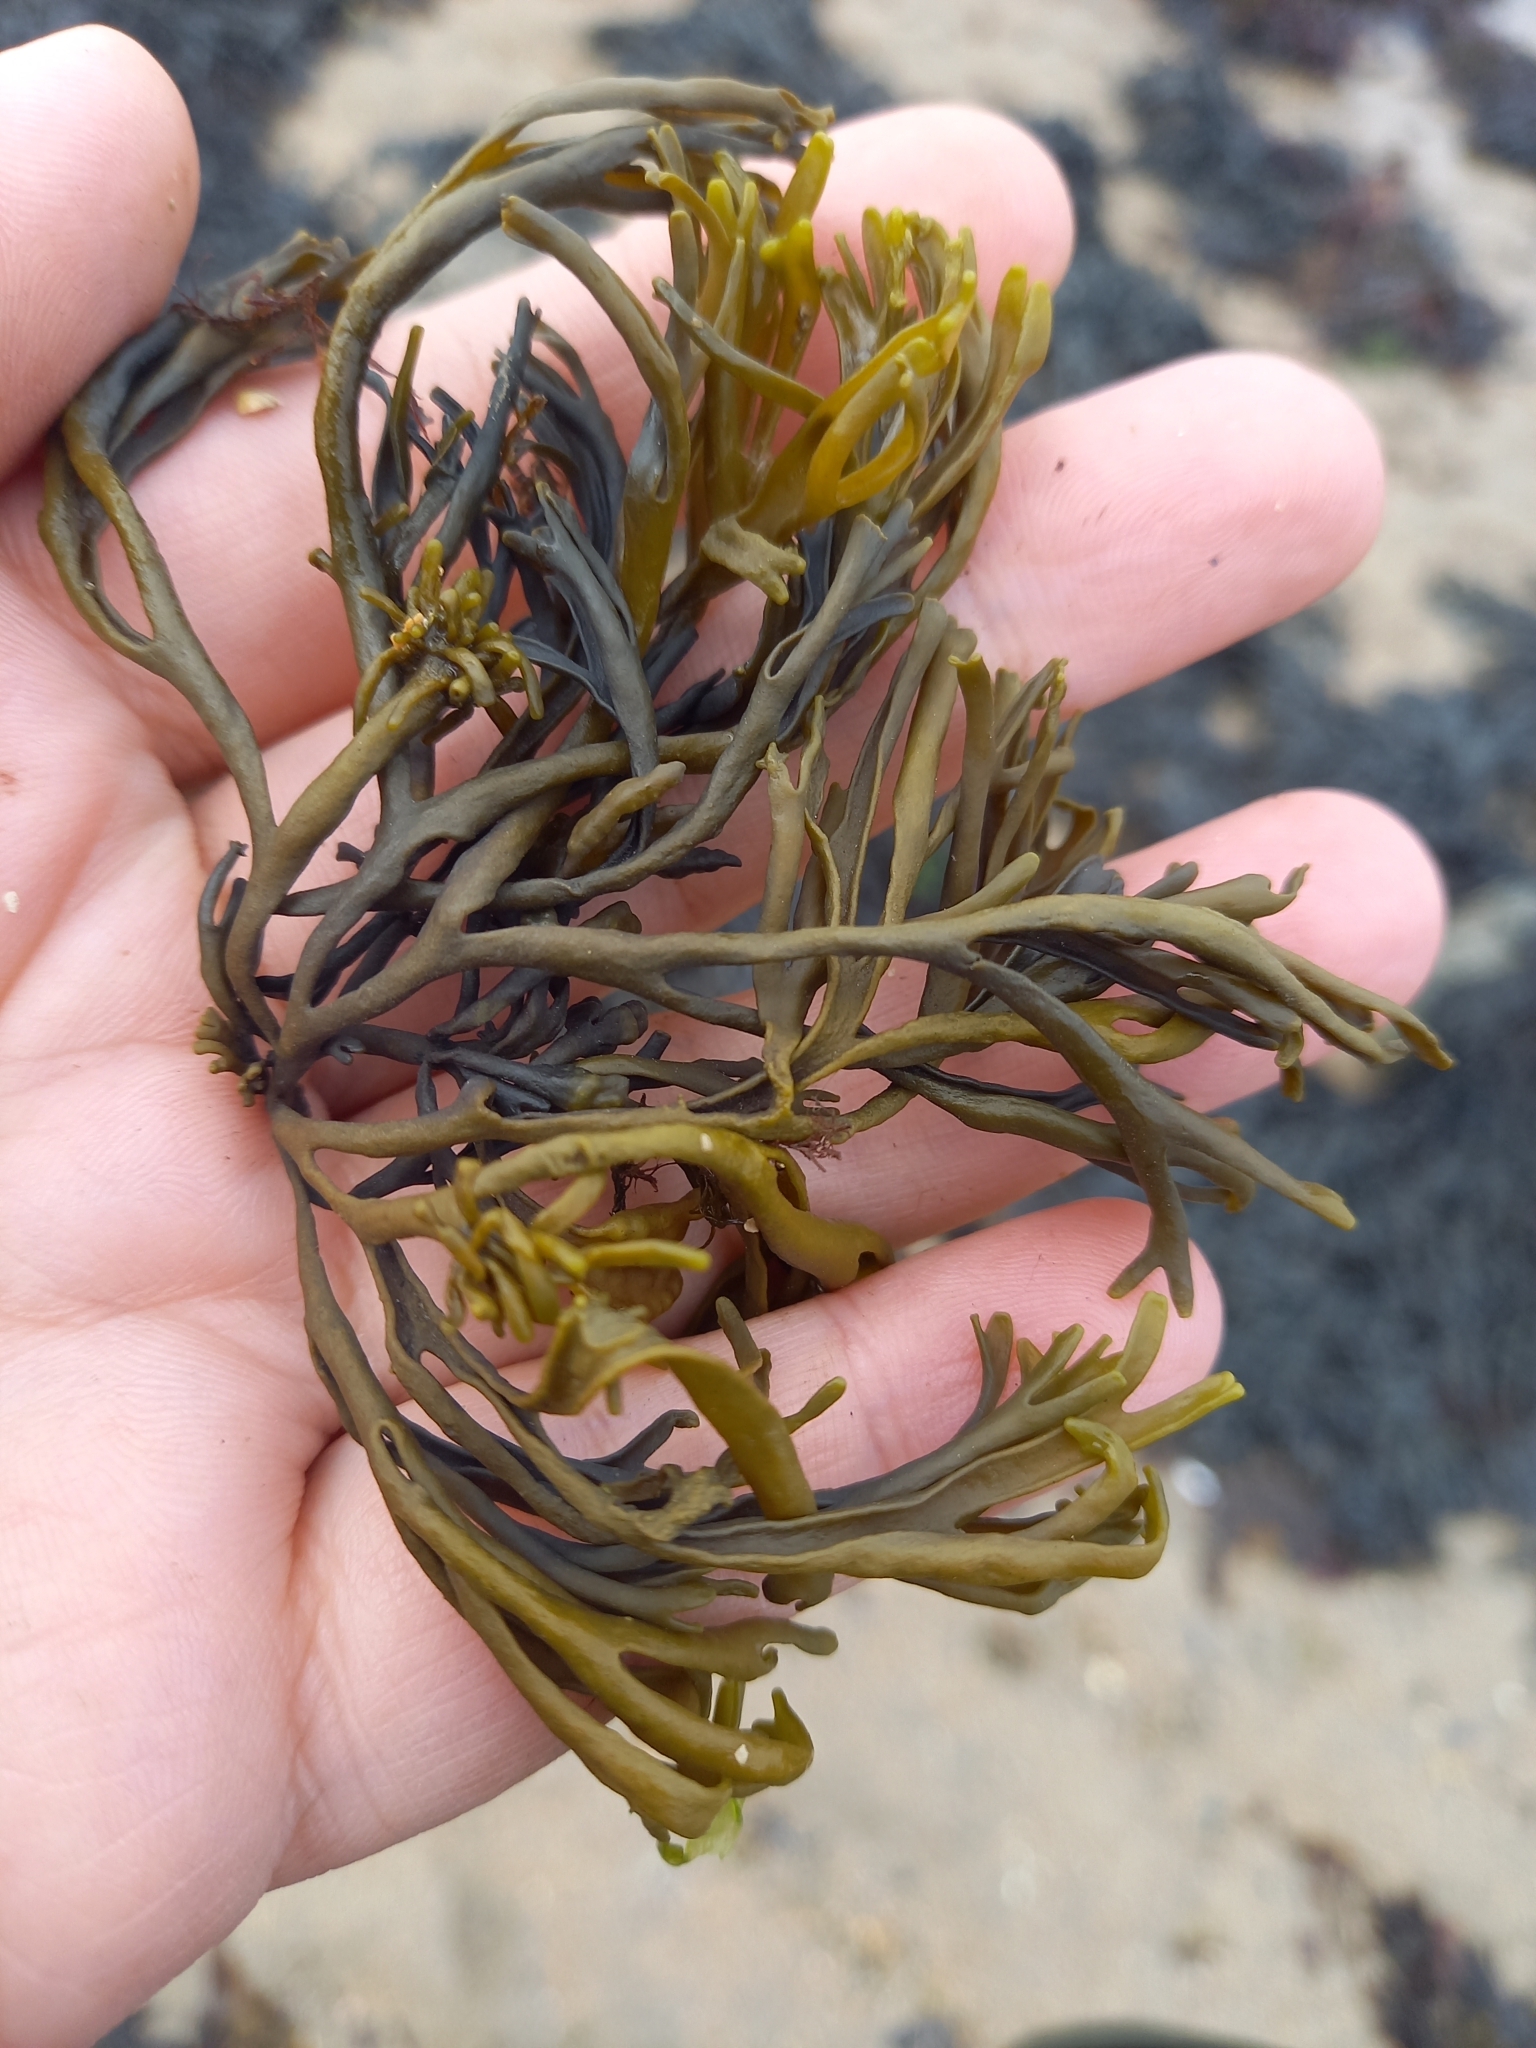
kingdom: Plantae
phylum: Chlorophyta
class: Ulvophyceae
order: Bryopsidales
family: Codiaceae
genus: Codium
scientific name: Codium fragile
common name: Dead man's fingers
